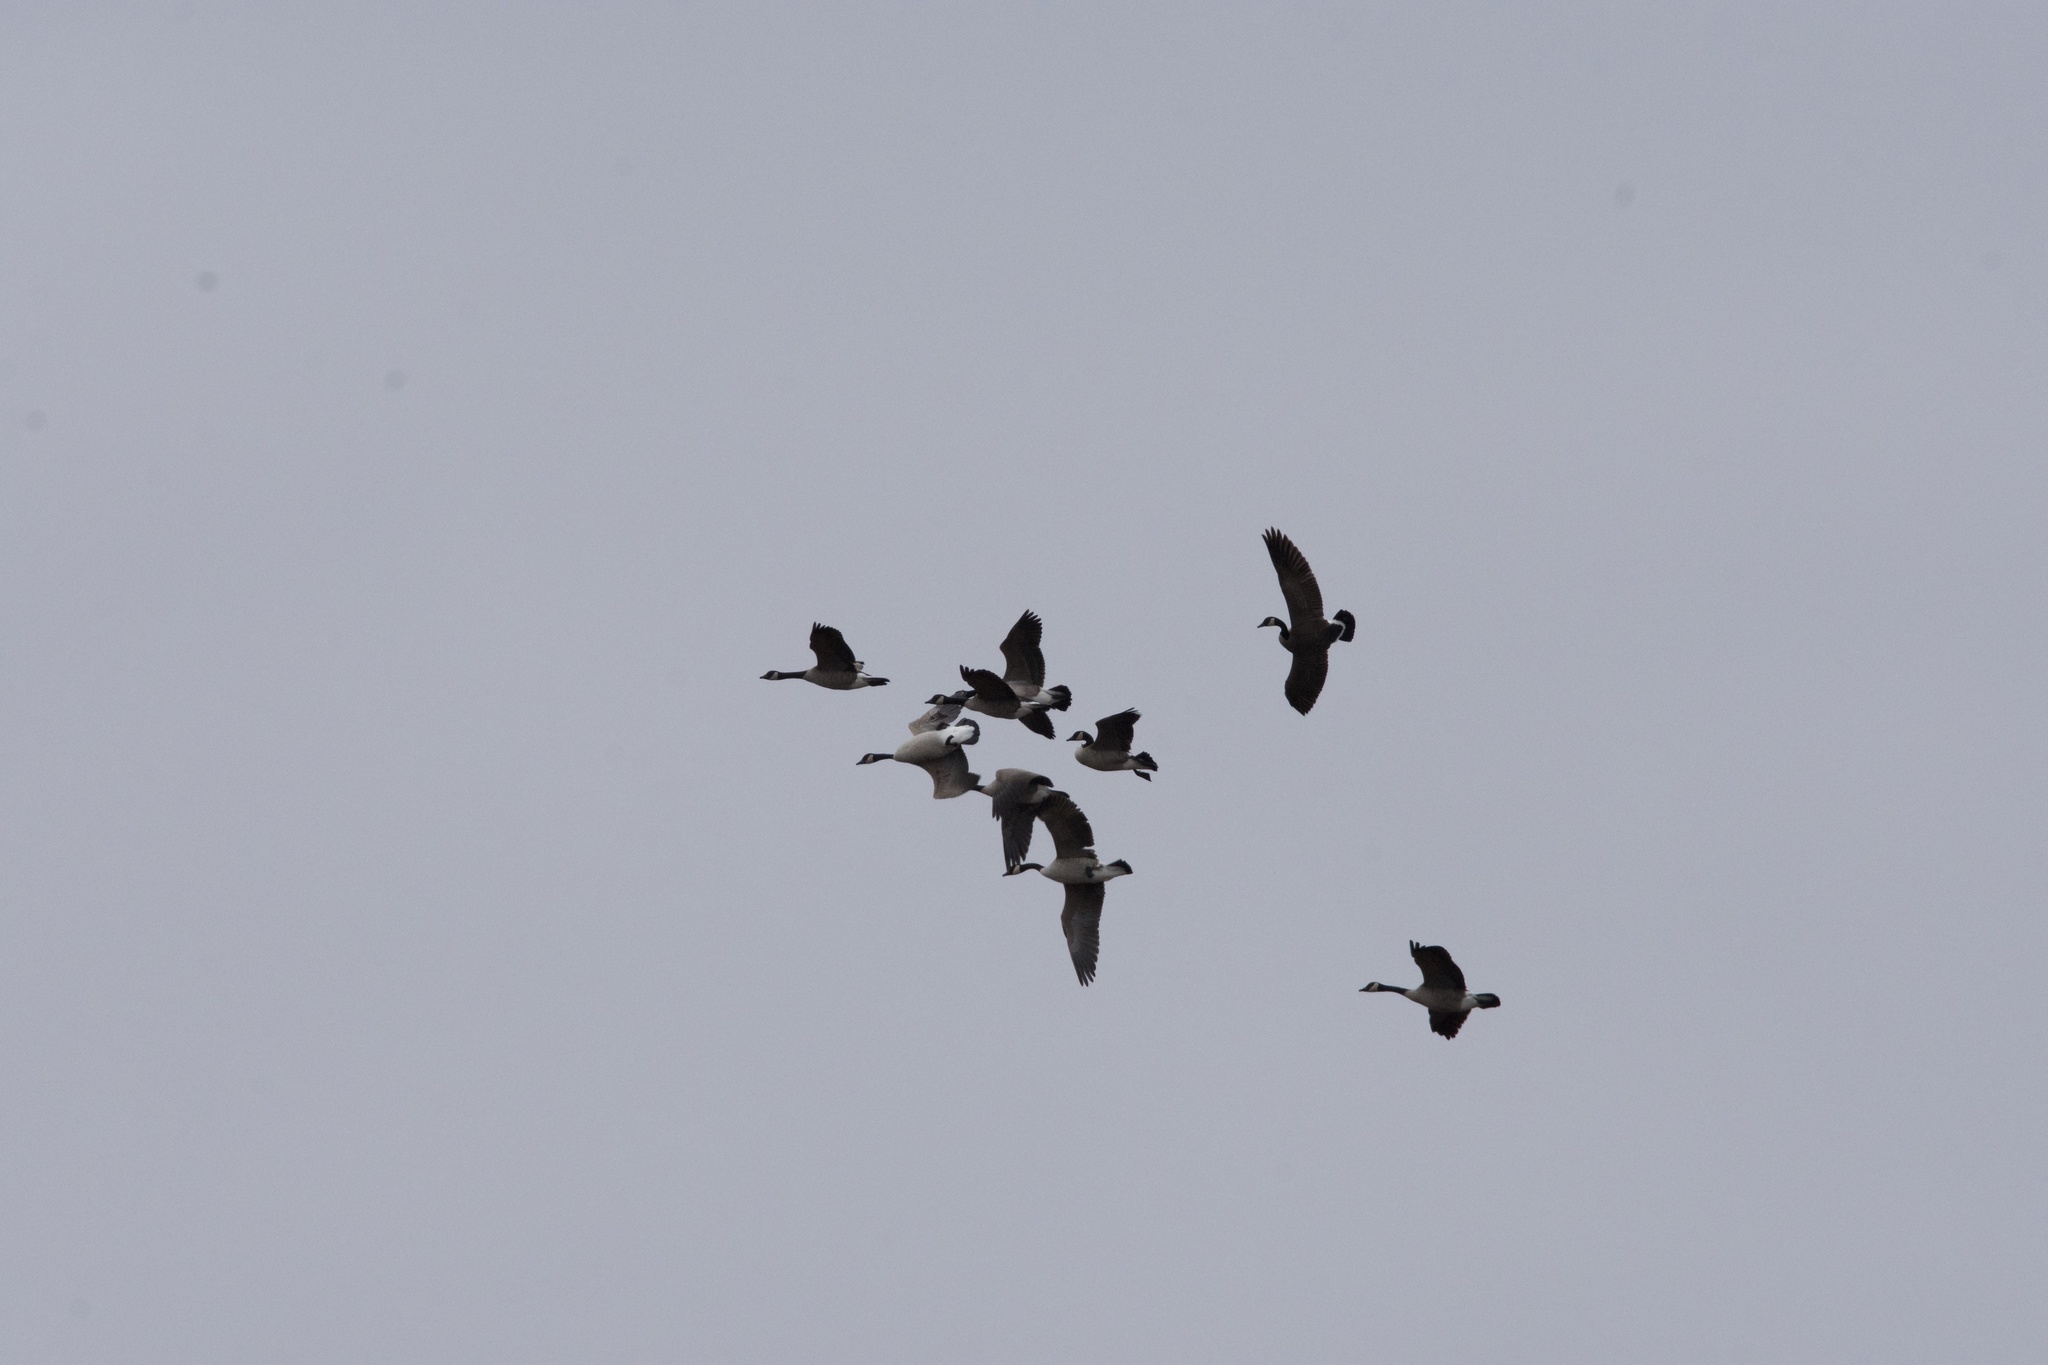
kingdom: Animalia
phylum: Chordata
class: Aves
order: Anseriformes
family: Anatidae
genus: Branta
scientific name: Branta canadensis
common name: Canada goose
